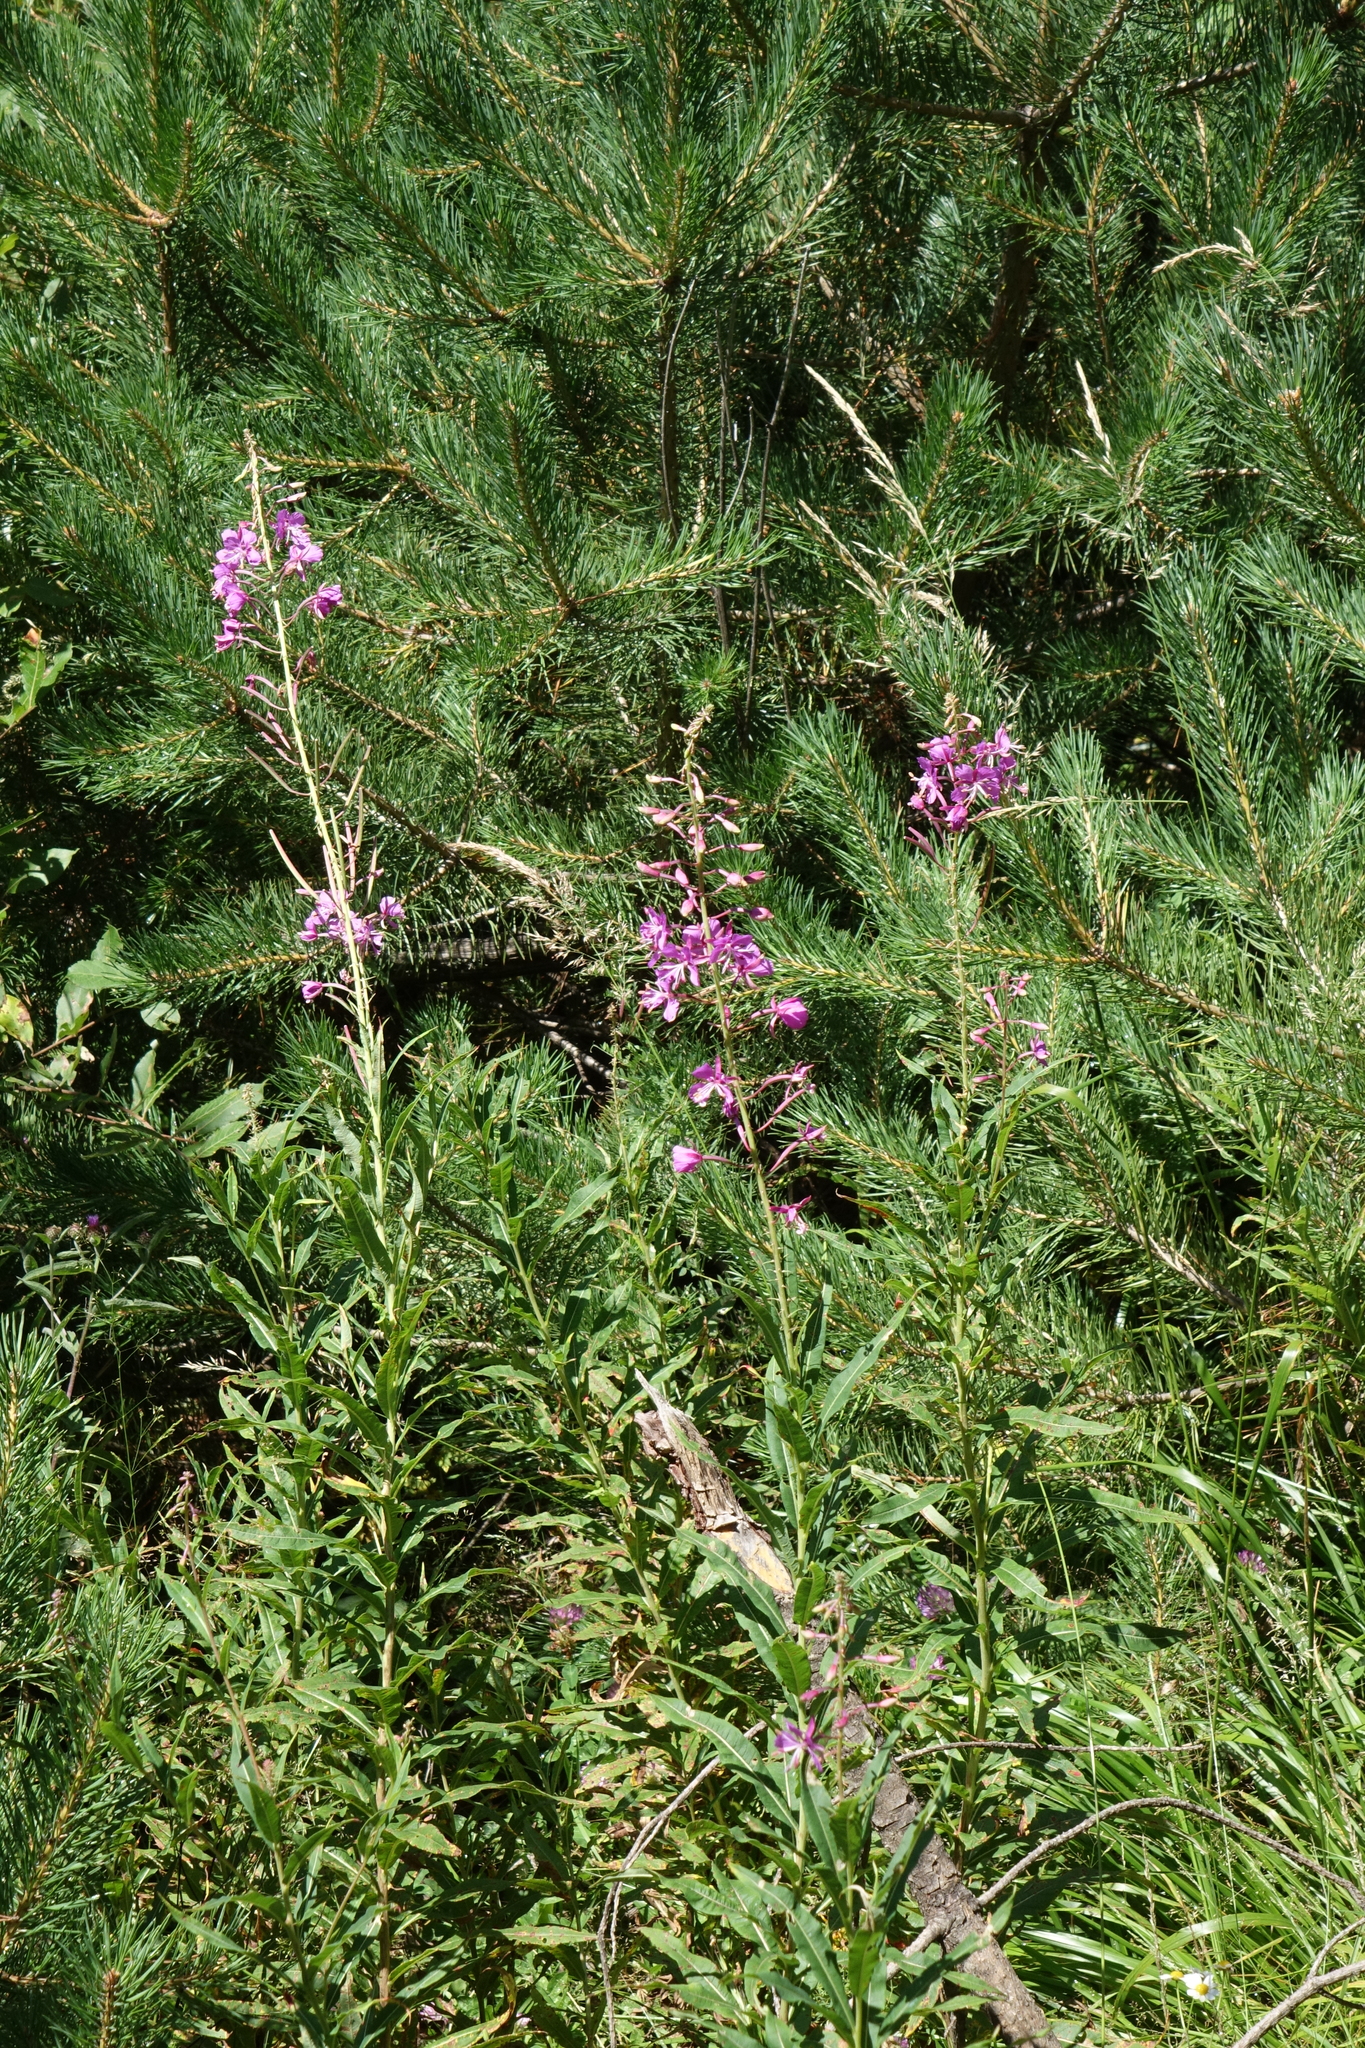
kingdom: Plantae
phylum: Tracheophyta
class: Magnoliopsida
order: Myrtales
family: Onagraceae
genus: Chamaenerion
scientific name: Chamaenerion angustifolium
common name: Fireweed
